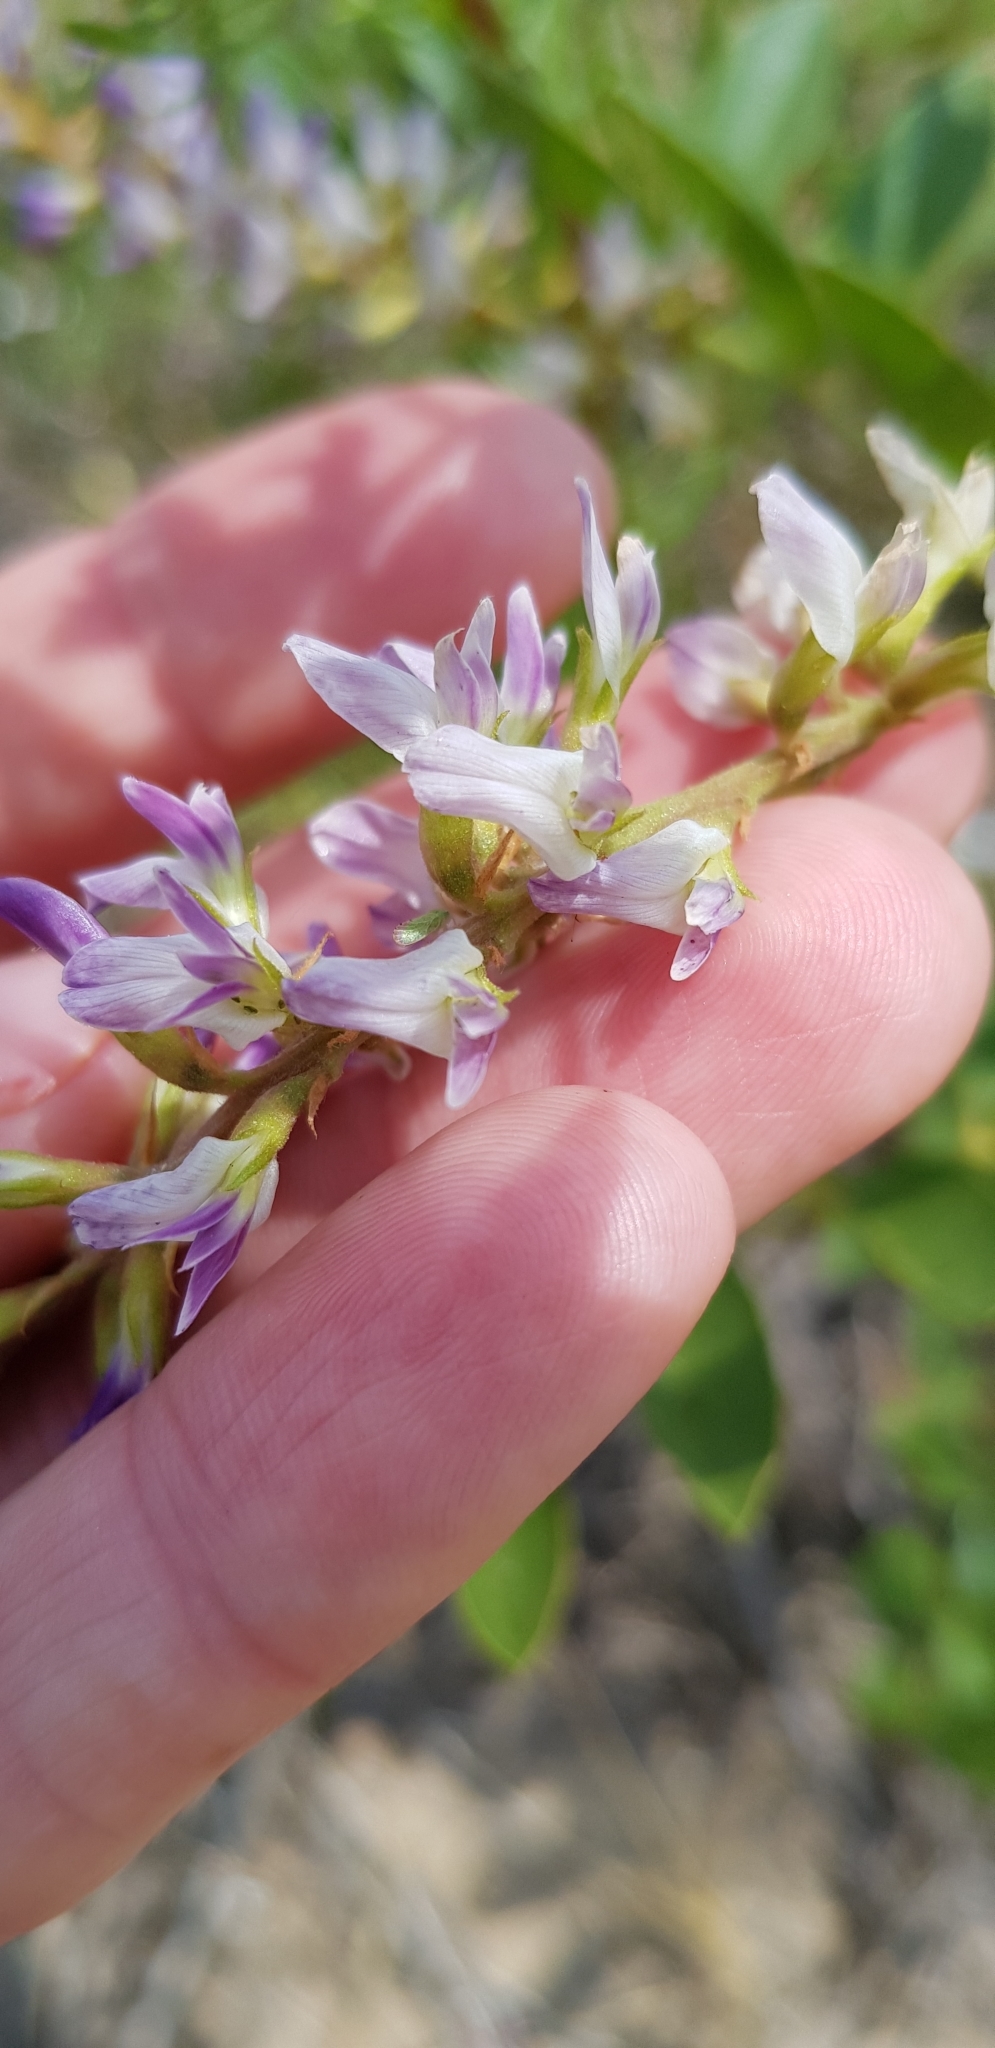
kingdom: Plantae
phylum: Tracheophyta
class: Magnoliopsida
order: Fabales
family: Fabaceae
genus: Glycyrrhiza
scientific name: Glycyrrhiza glabra
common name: Liquorice
